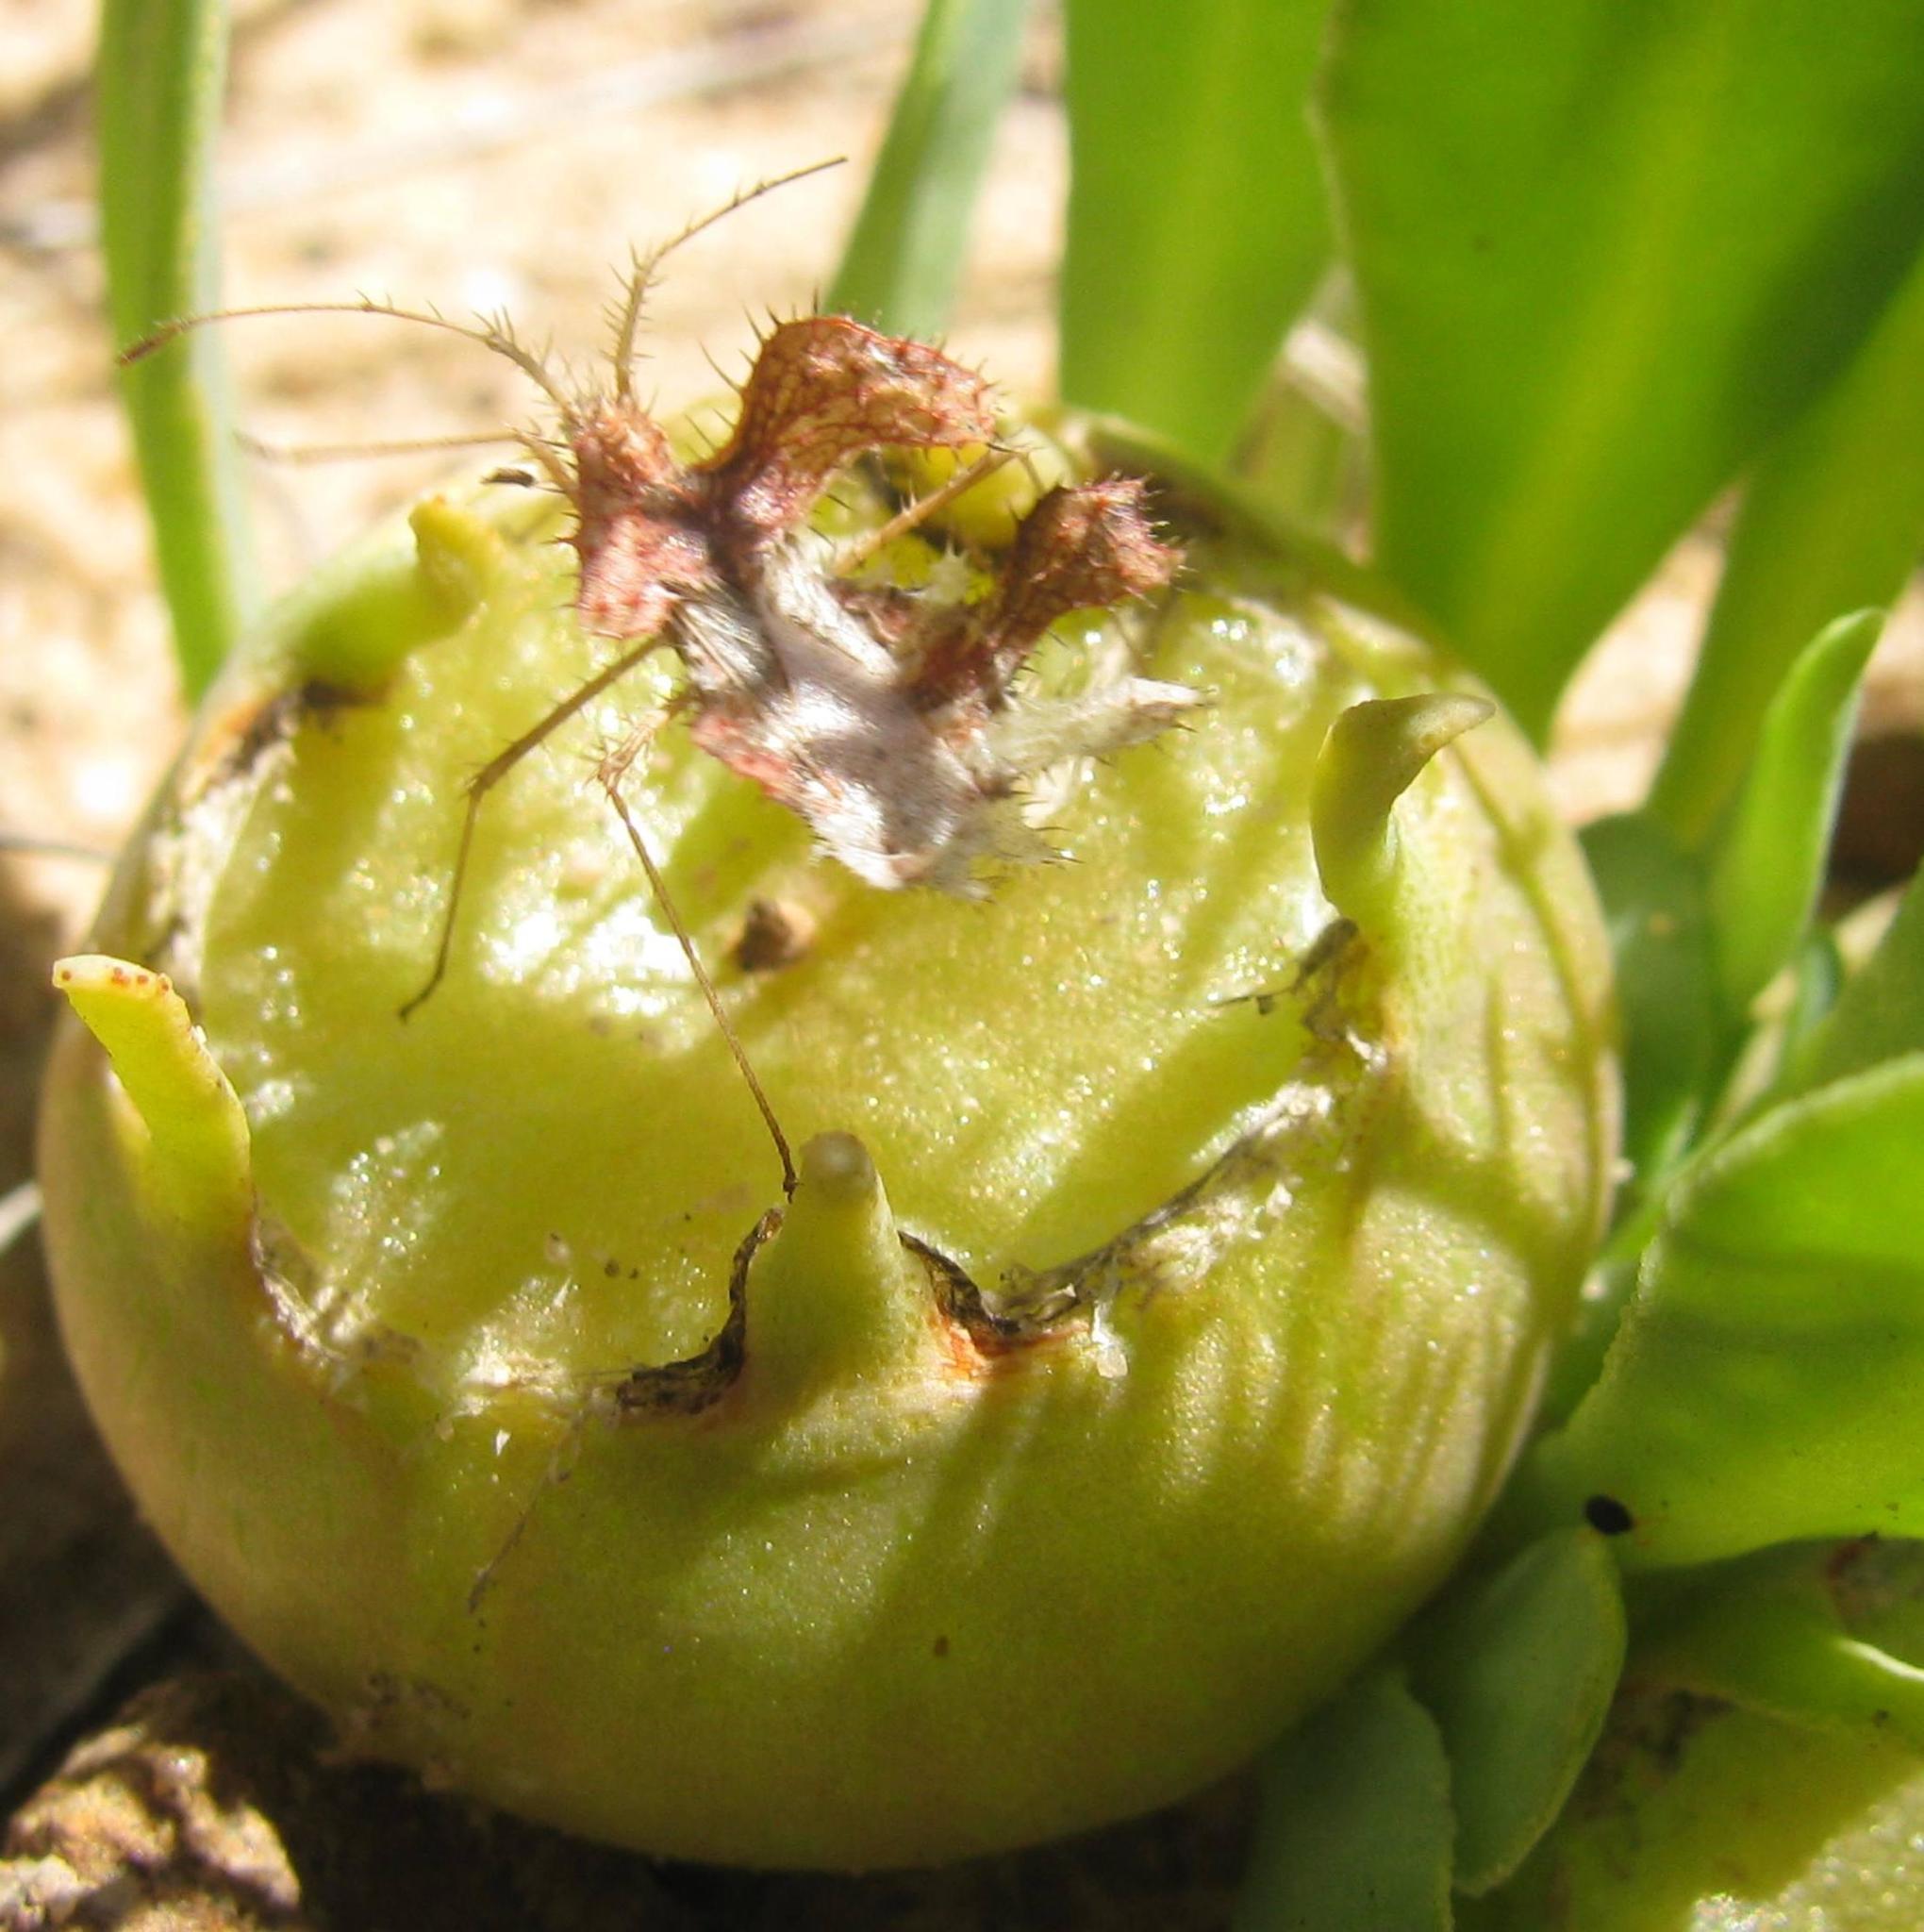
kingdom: Animalia
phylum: Arthropoda
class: Insecta
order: Hemiptera
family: Coreidae
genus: Pephricus
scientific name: Pephricus capicola
